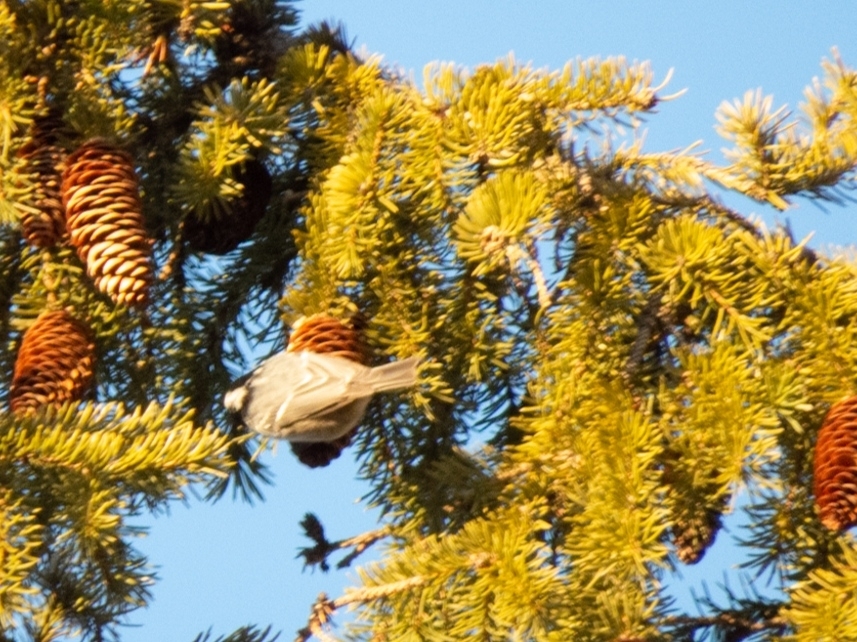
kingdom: Animalia
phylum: Chordata
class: Aves
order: Passeriformes
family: Paridae
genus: Periparus
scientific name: Periparus ater
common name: Coal tit
